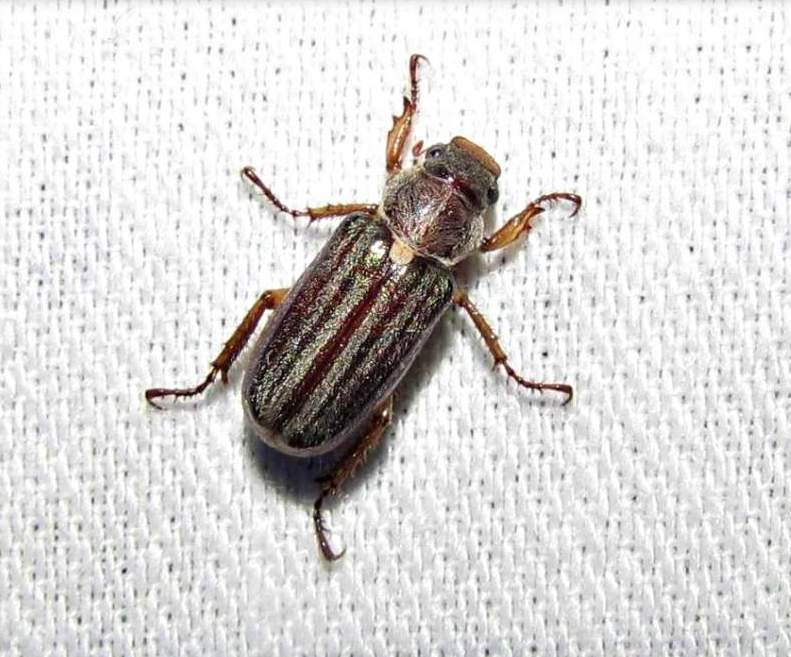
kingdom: Animalia
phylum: Arthropoda
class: Insecta
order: Coleoptera
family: Scarabaeidae
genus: Dichelonyx
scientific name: Dichelonyx albicollis
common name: White-necked pine-beetle
